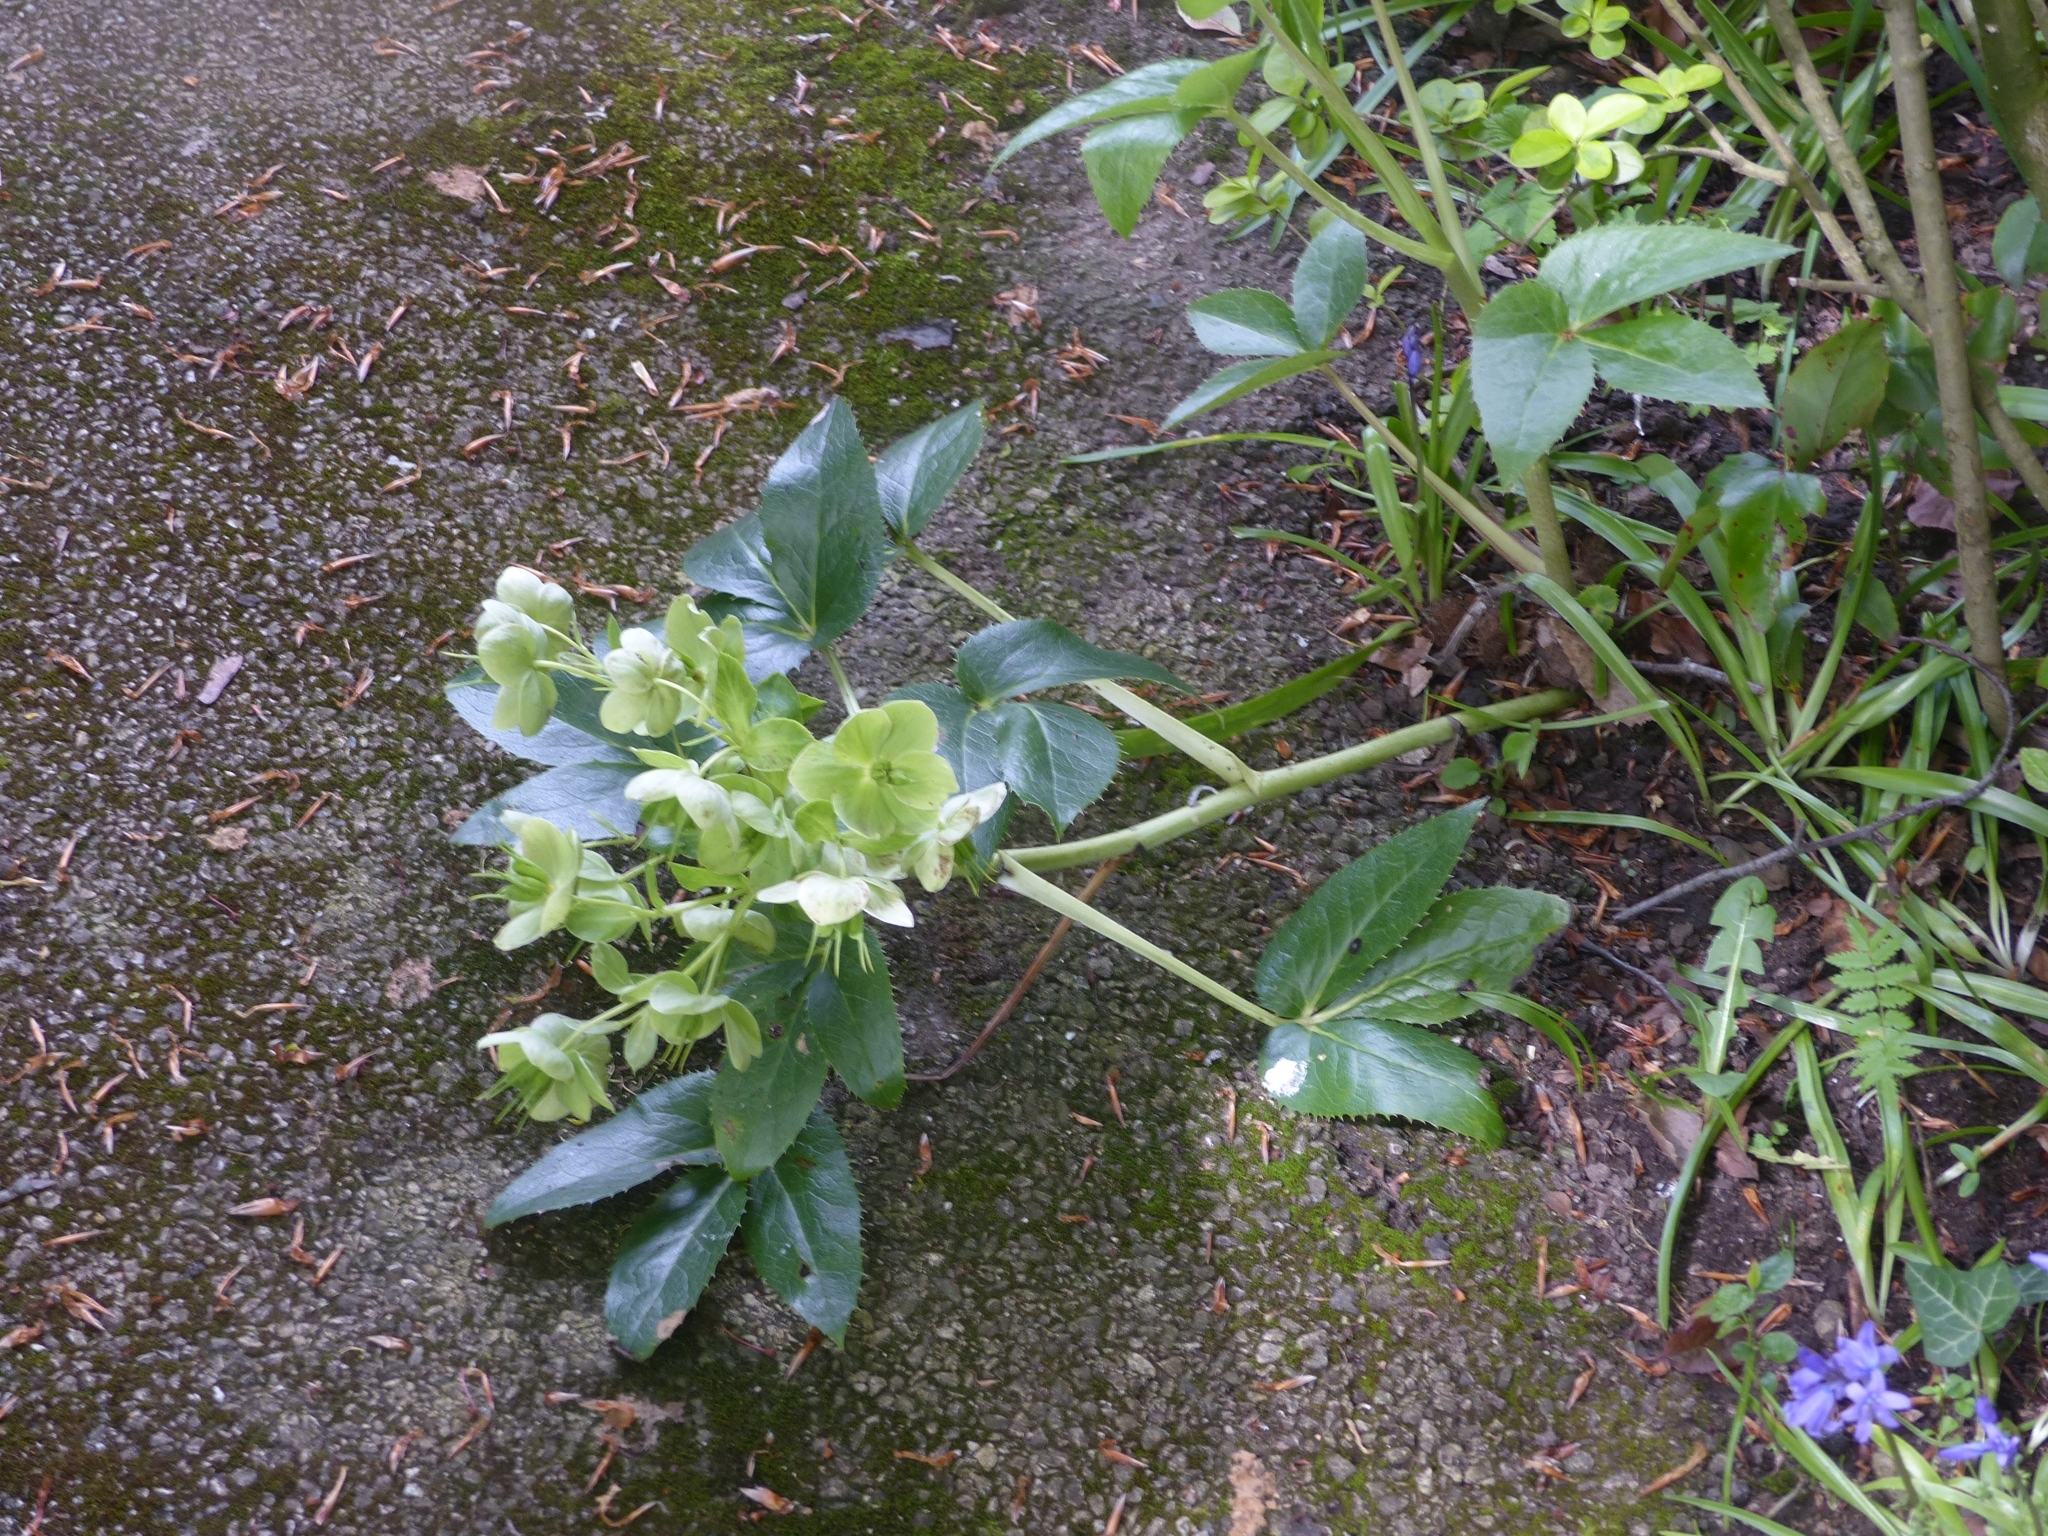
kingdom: Plantae
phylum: Tracheophyta
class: Magnoliopsida
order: Ranunculales
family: Ranunculaceae
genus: Helleborus
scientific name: Helleborus argutifolius
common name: Corsican hellebore
